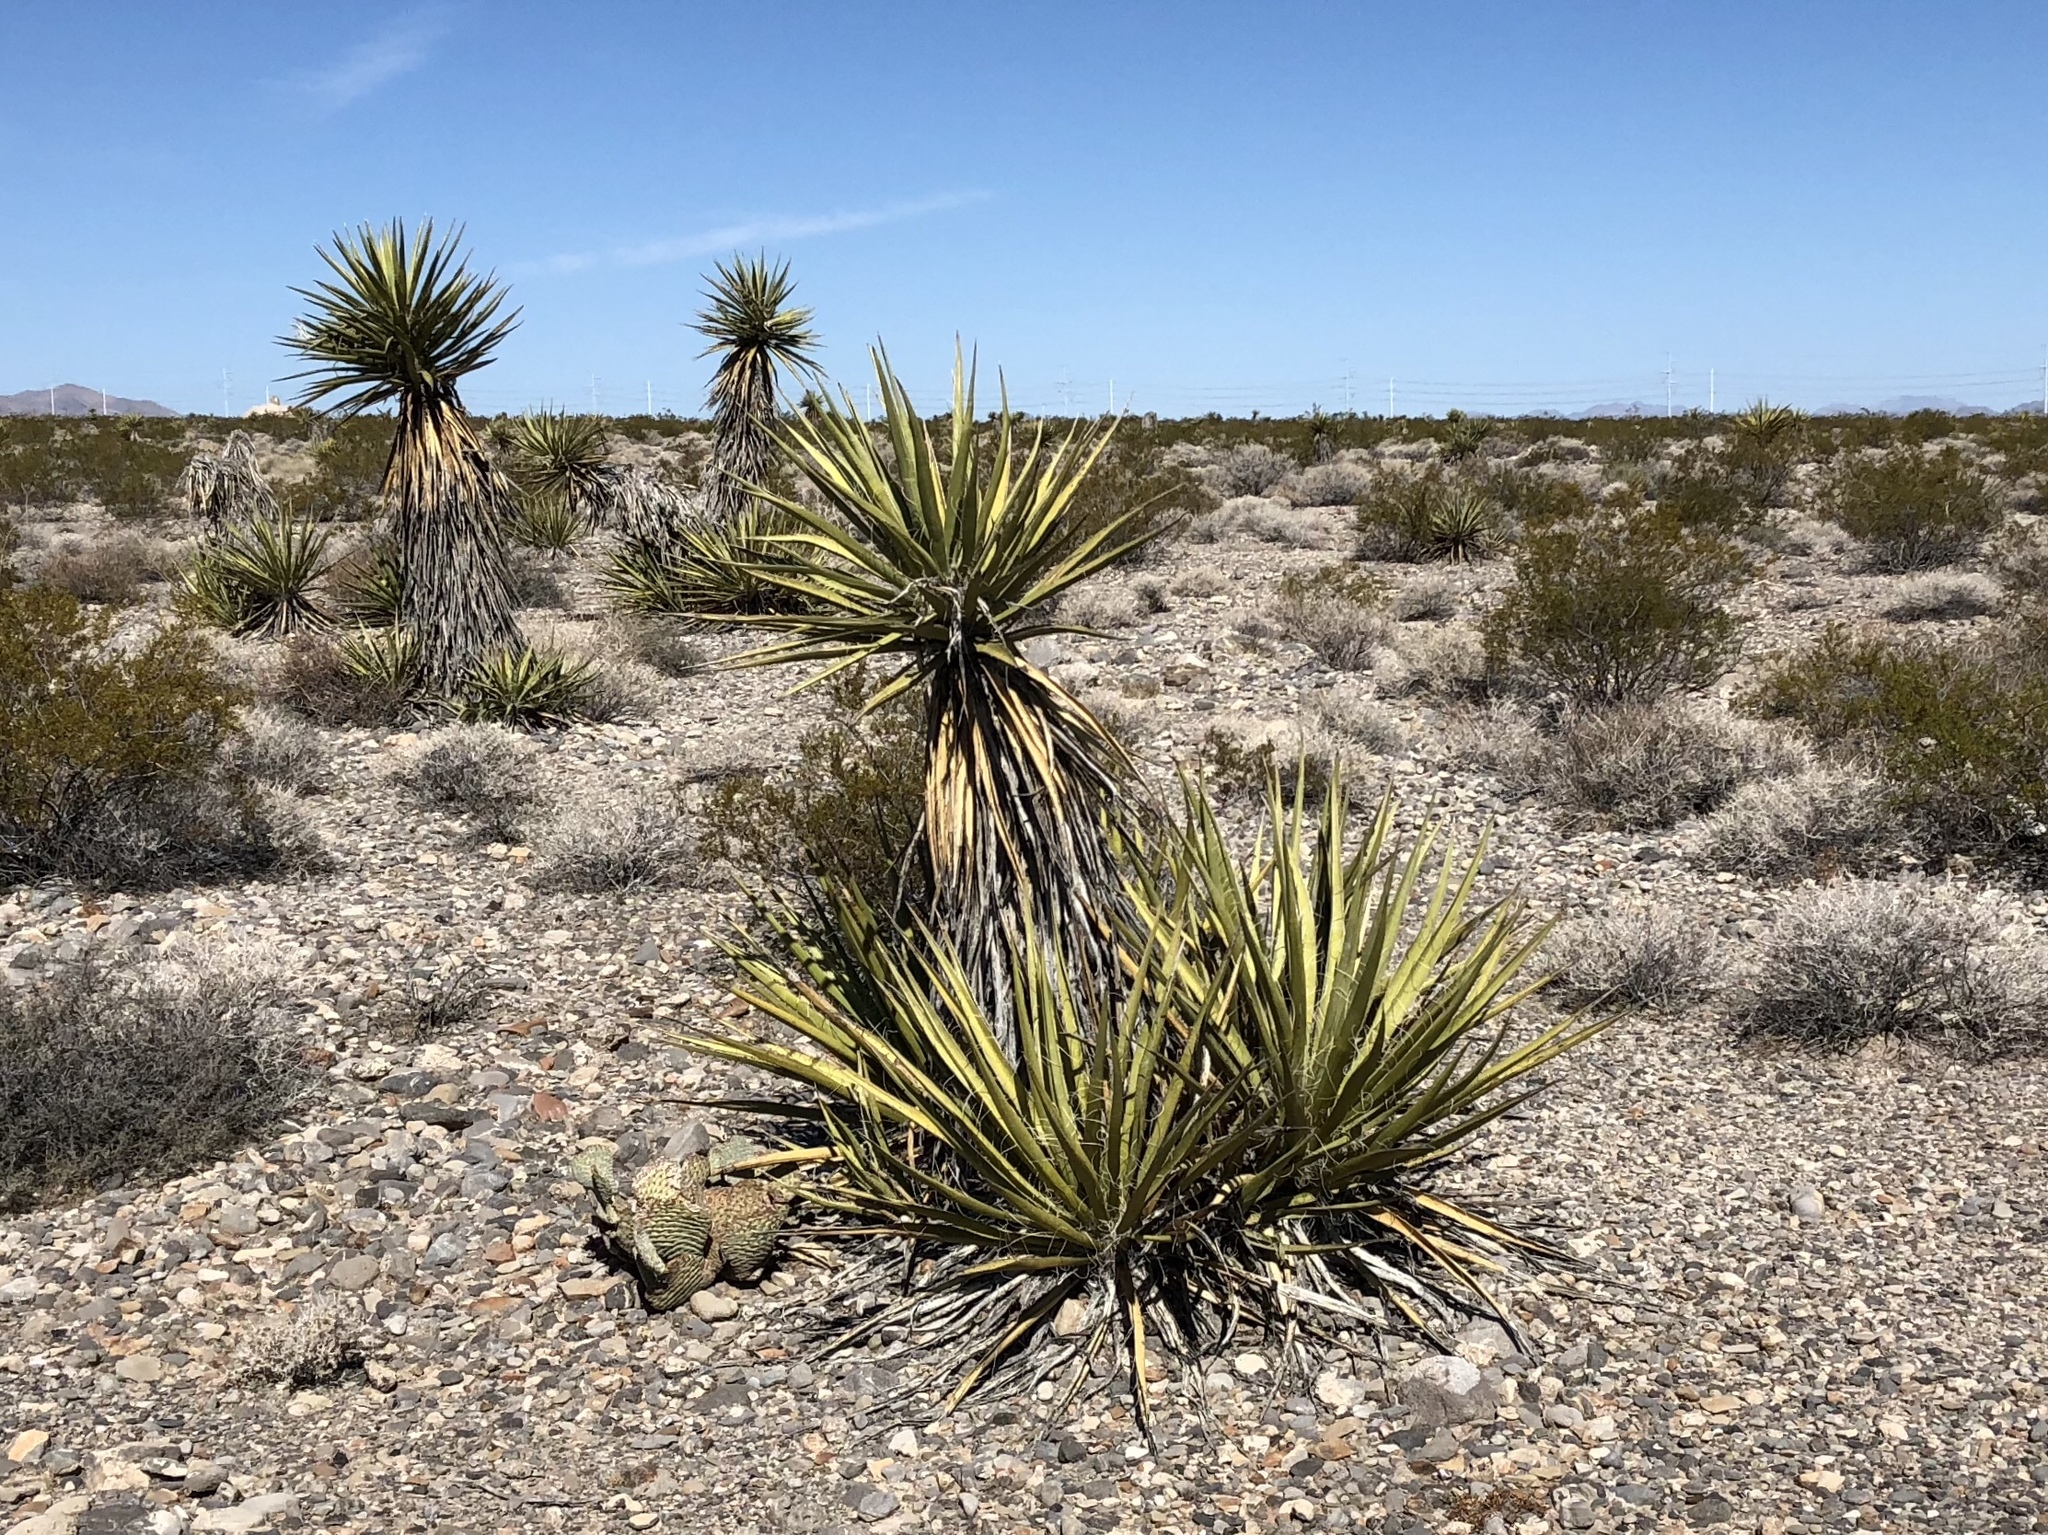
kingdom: Plantae
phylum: Tracheophyta
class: Liliopsida
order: Asparagales
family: Asparagaceae
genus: Yucca
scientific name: Yucca schidigera
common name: Mojave yucca
